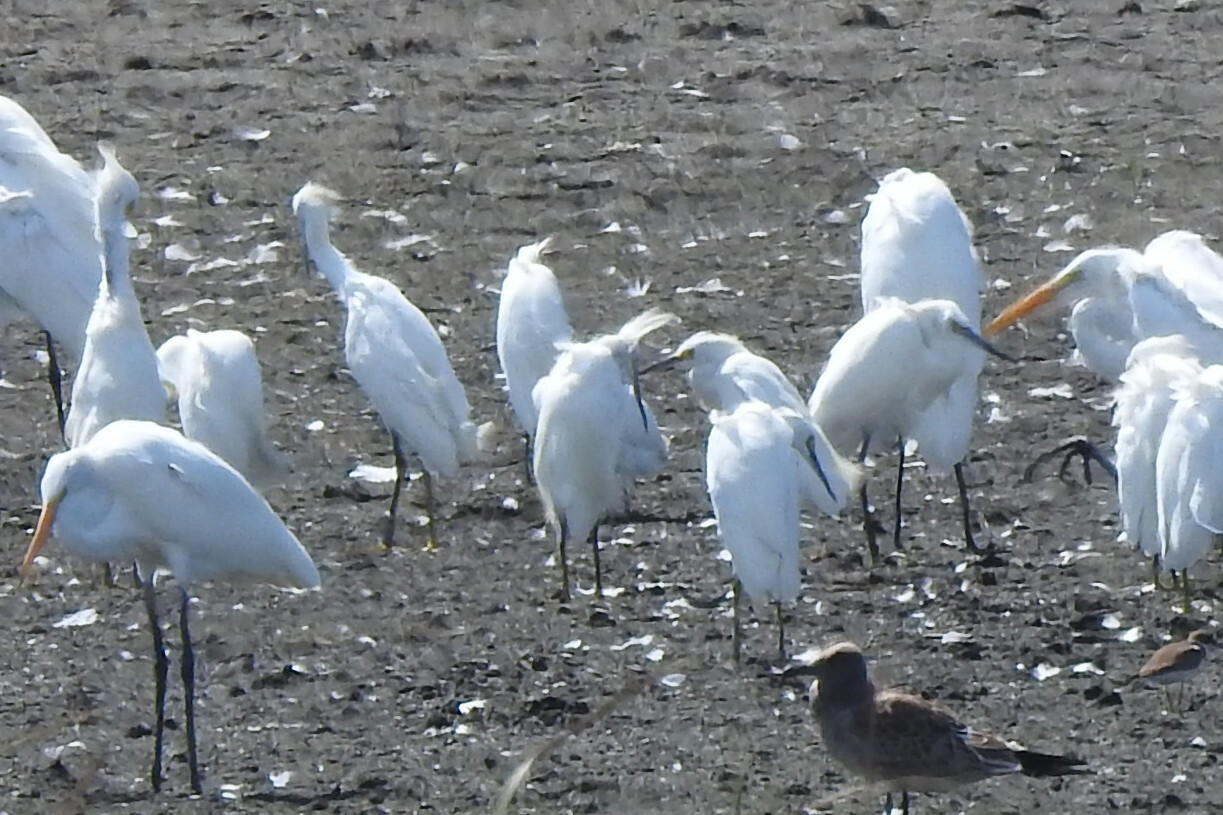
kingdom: Animalia
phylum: Chordata
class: Aves
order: Pelecaniformes
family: Ardeidae
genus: Egretta
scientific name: Egretta thula
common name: Snowy egret
